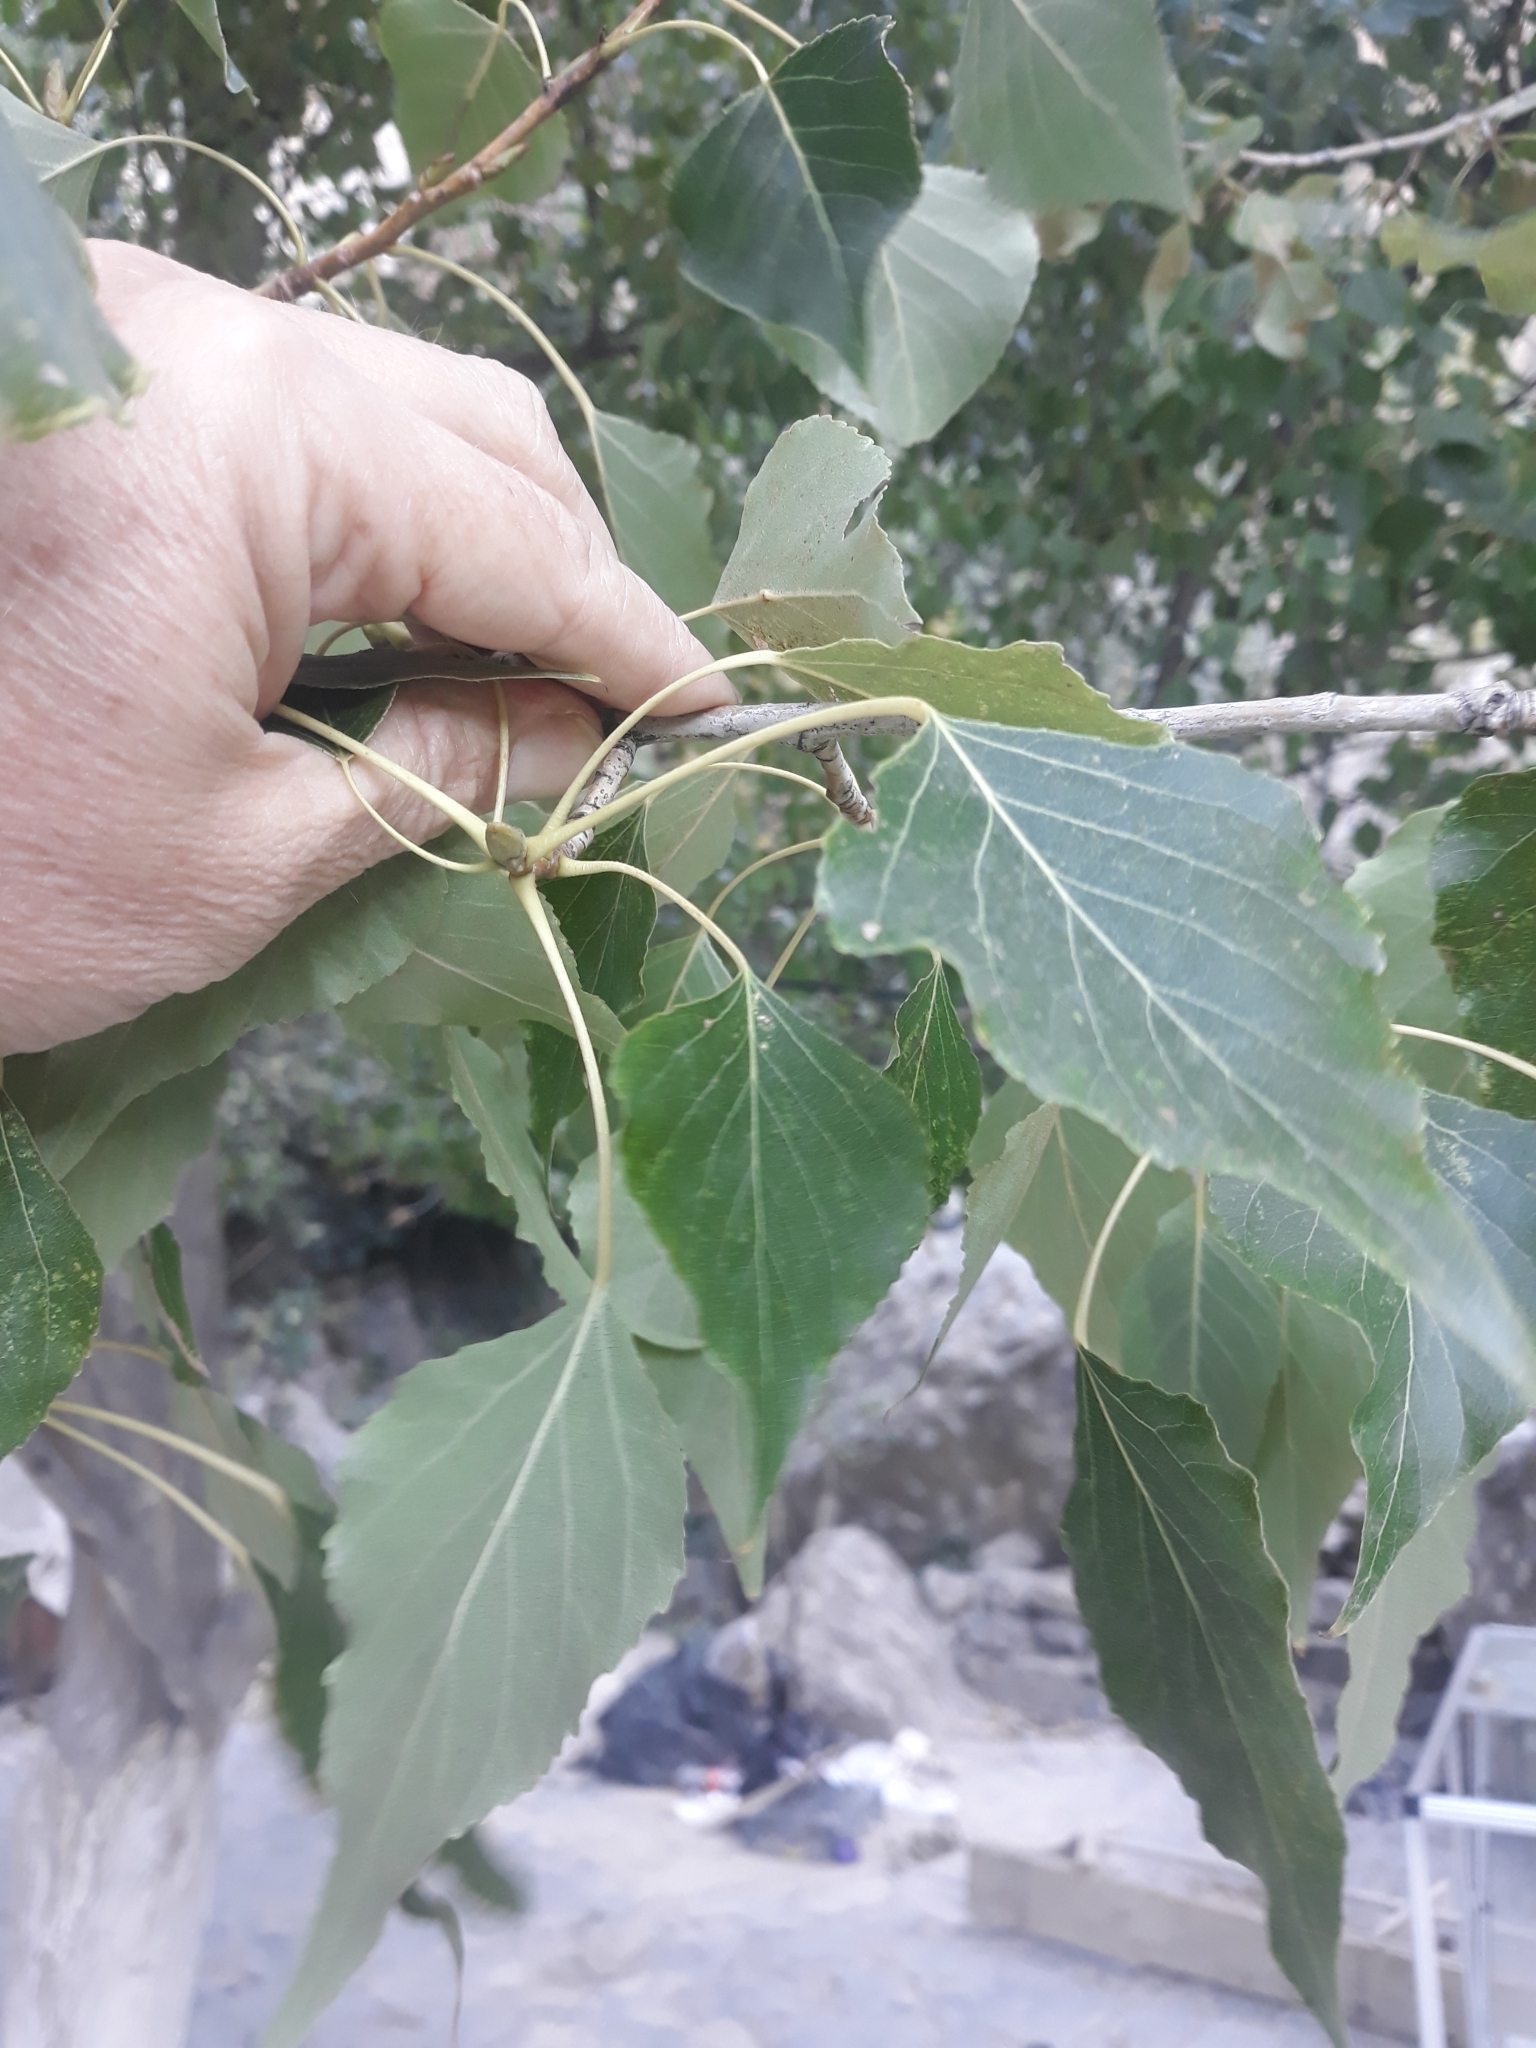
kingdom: Plantae
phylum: Tracheophyta
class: Magnoliopsida
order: Malpighiales
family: Salicaceae
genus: Populus
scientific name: Populus nigra
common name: Black poplar
